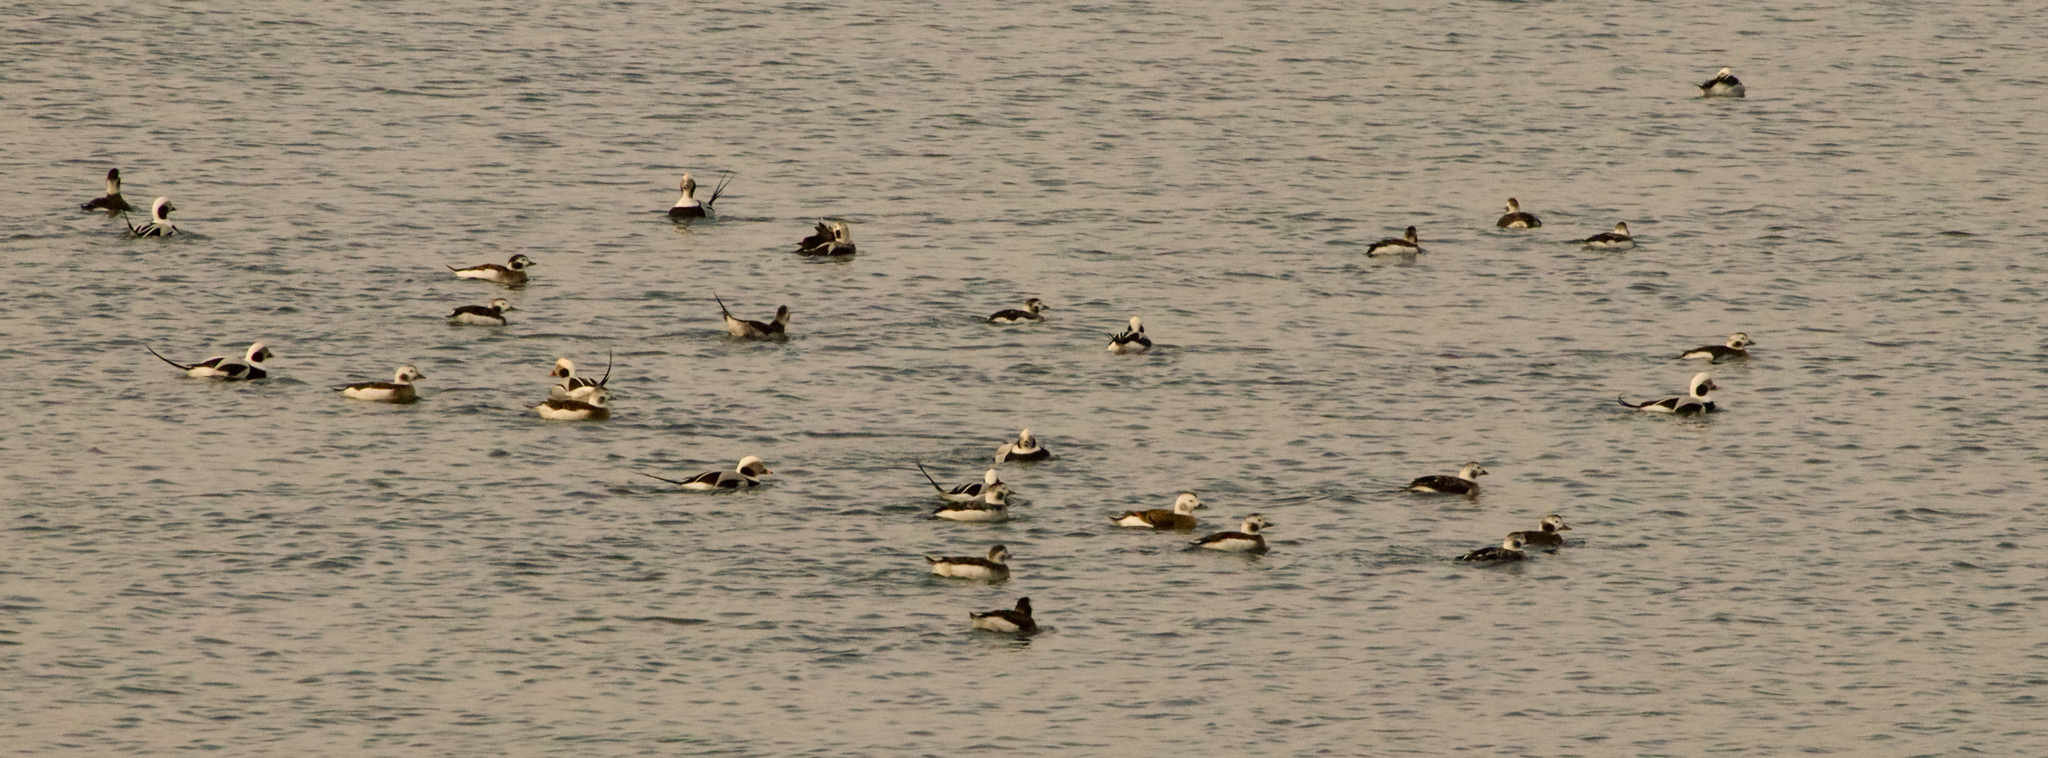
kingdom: Animalia
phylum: Chordata
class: Aves
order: Anseriformes
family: Anatidae
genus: Clangula
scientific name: Clangula hyemalis
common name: Long-tailed duck
